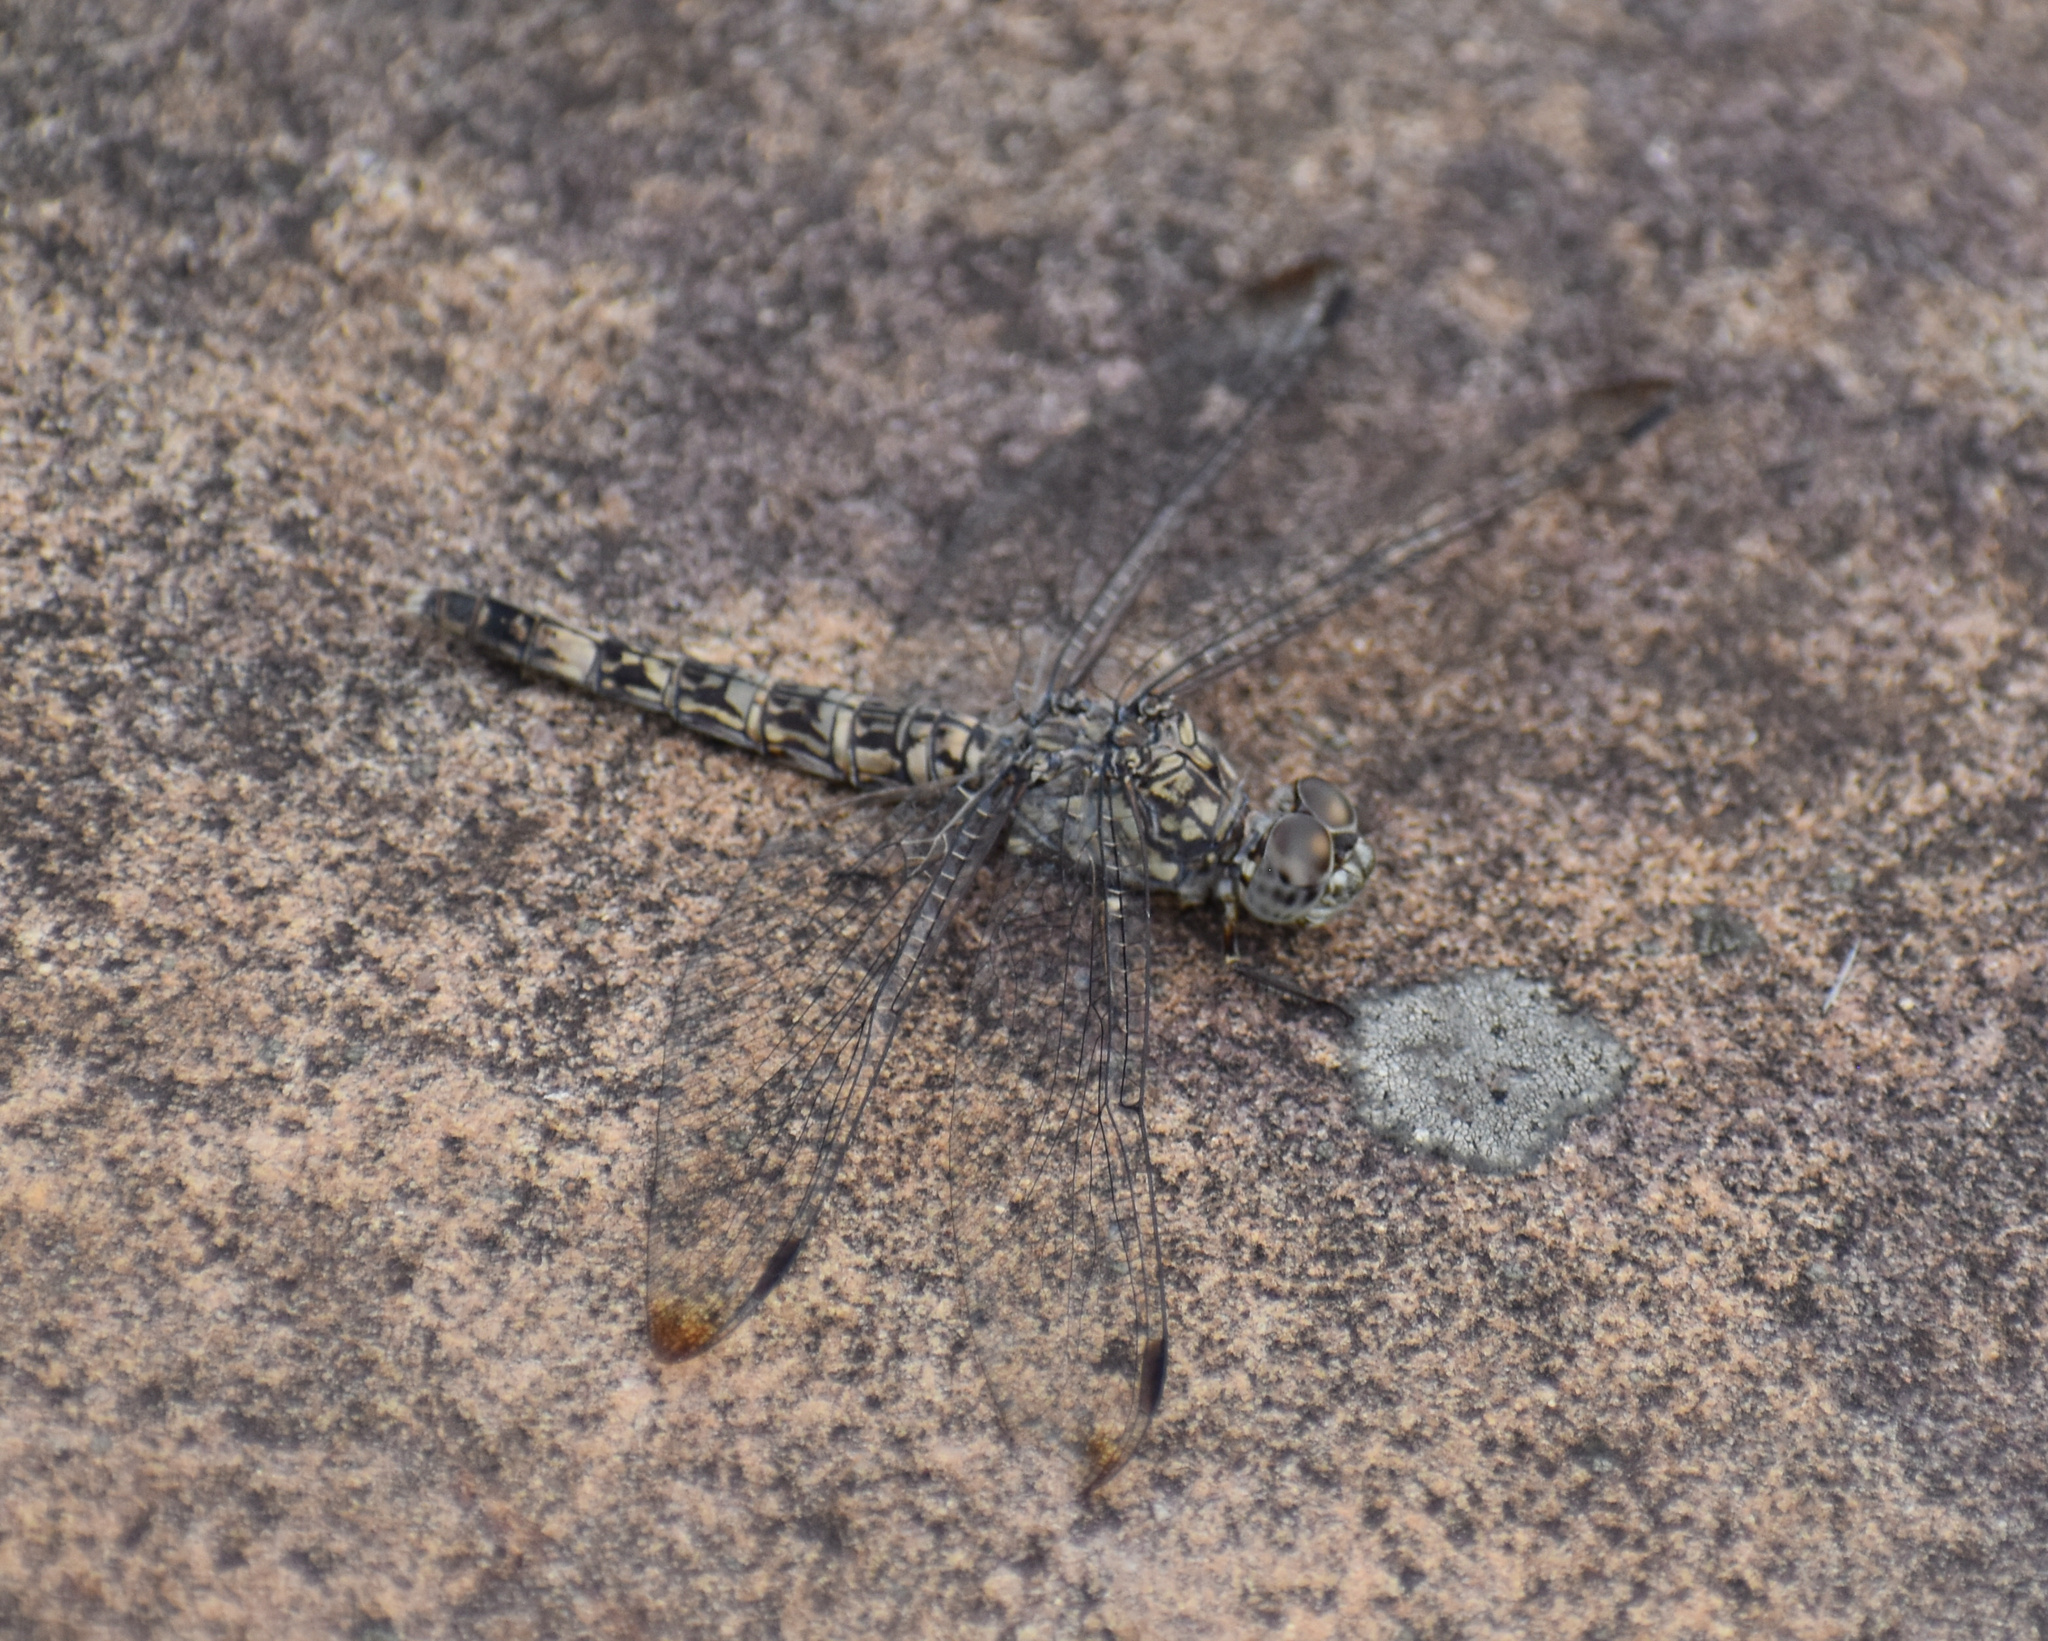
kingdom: Animalia
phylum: Arthropoda
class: Insecta
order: Odonata
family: Libellulidae
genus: Bradinopyga
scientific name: Bradinopyga cornuta
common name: Flecked wall-skimmer
